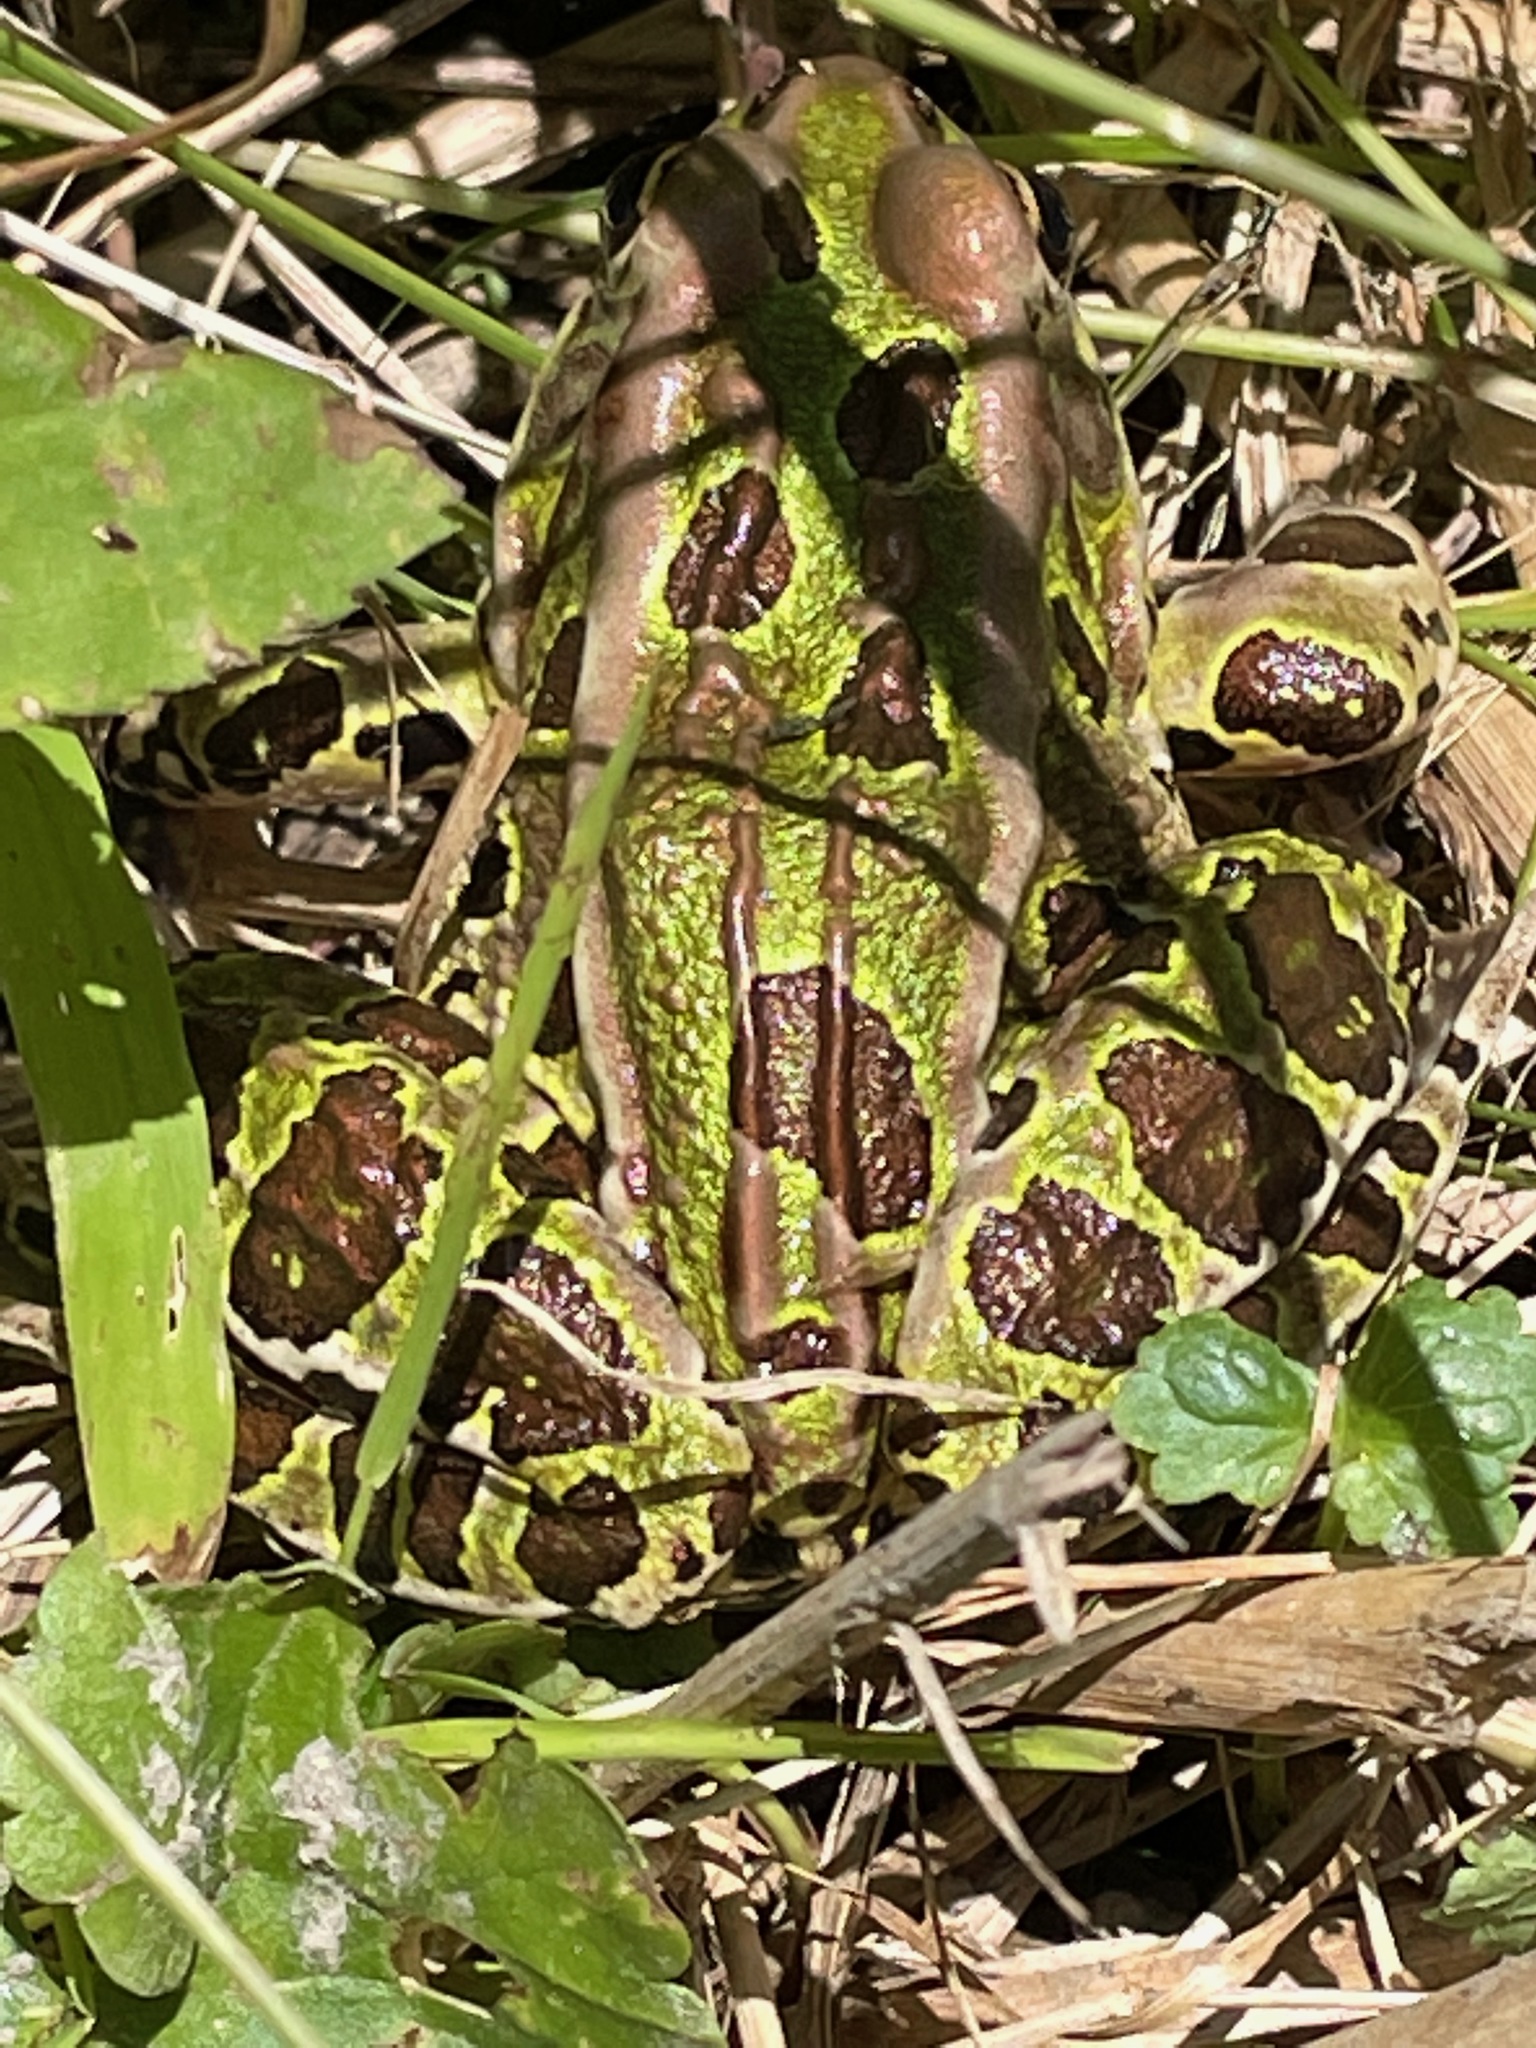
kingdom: Animalia
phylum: Chordata
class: Amphibia
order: Anura
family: Ranidae
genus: Lithobates
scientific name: Lithobates pipiens
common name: Northern leopard frog
